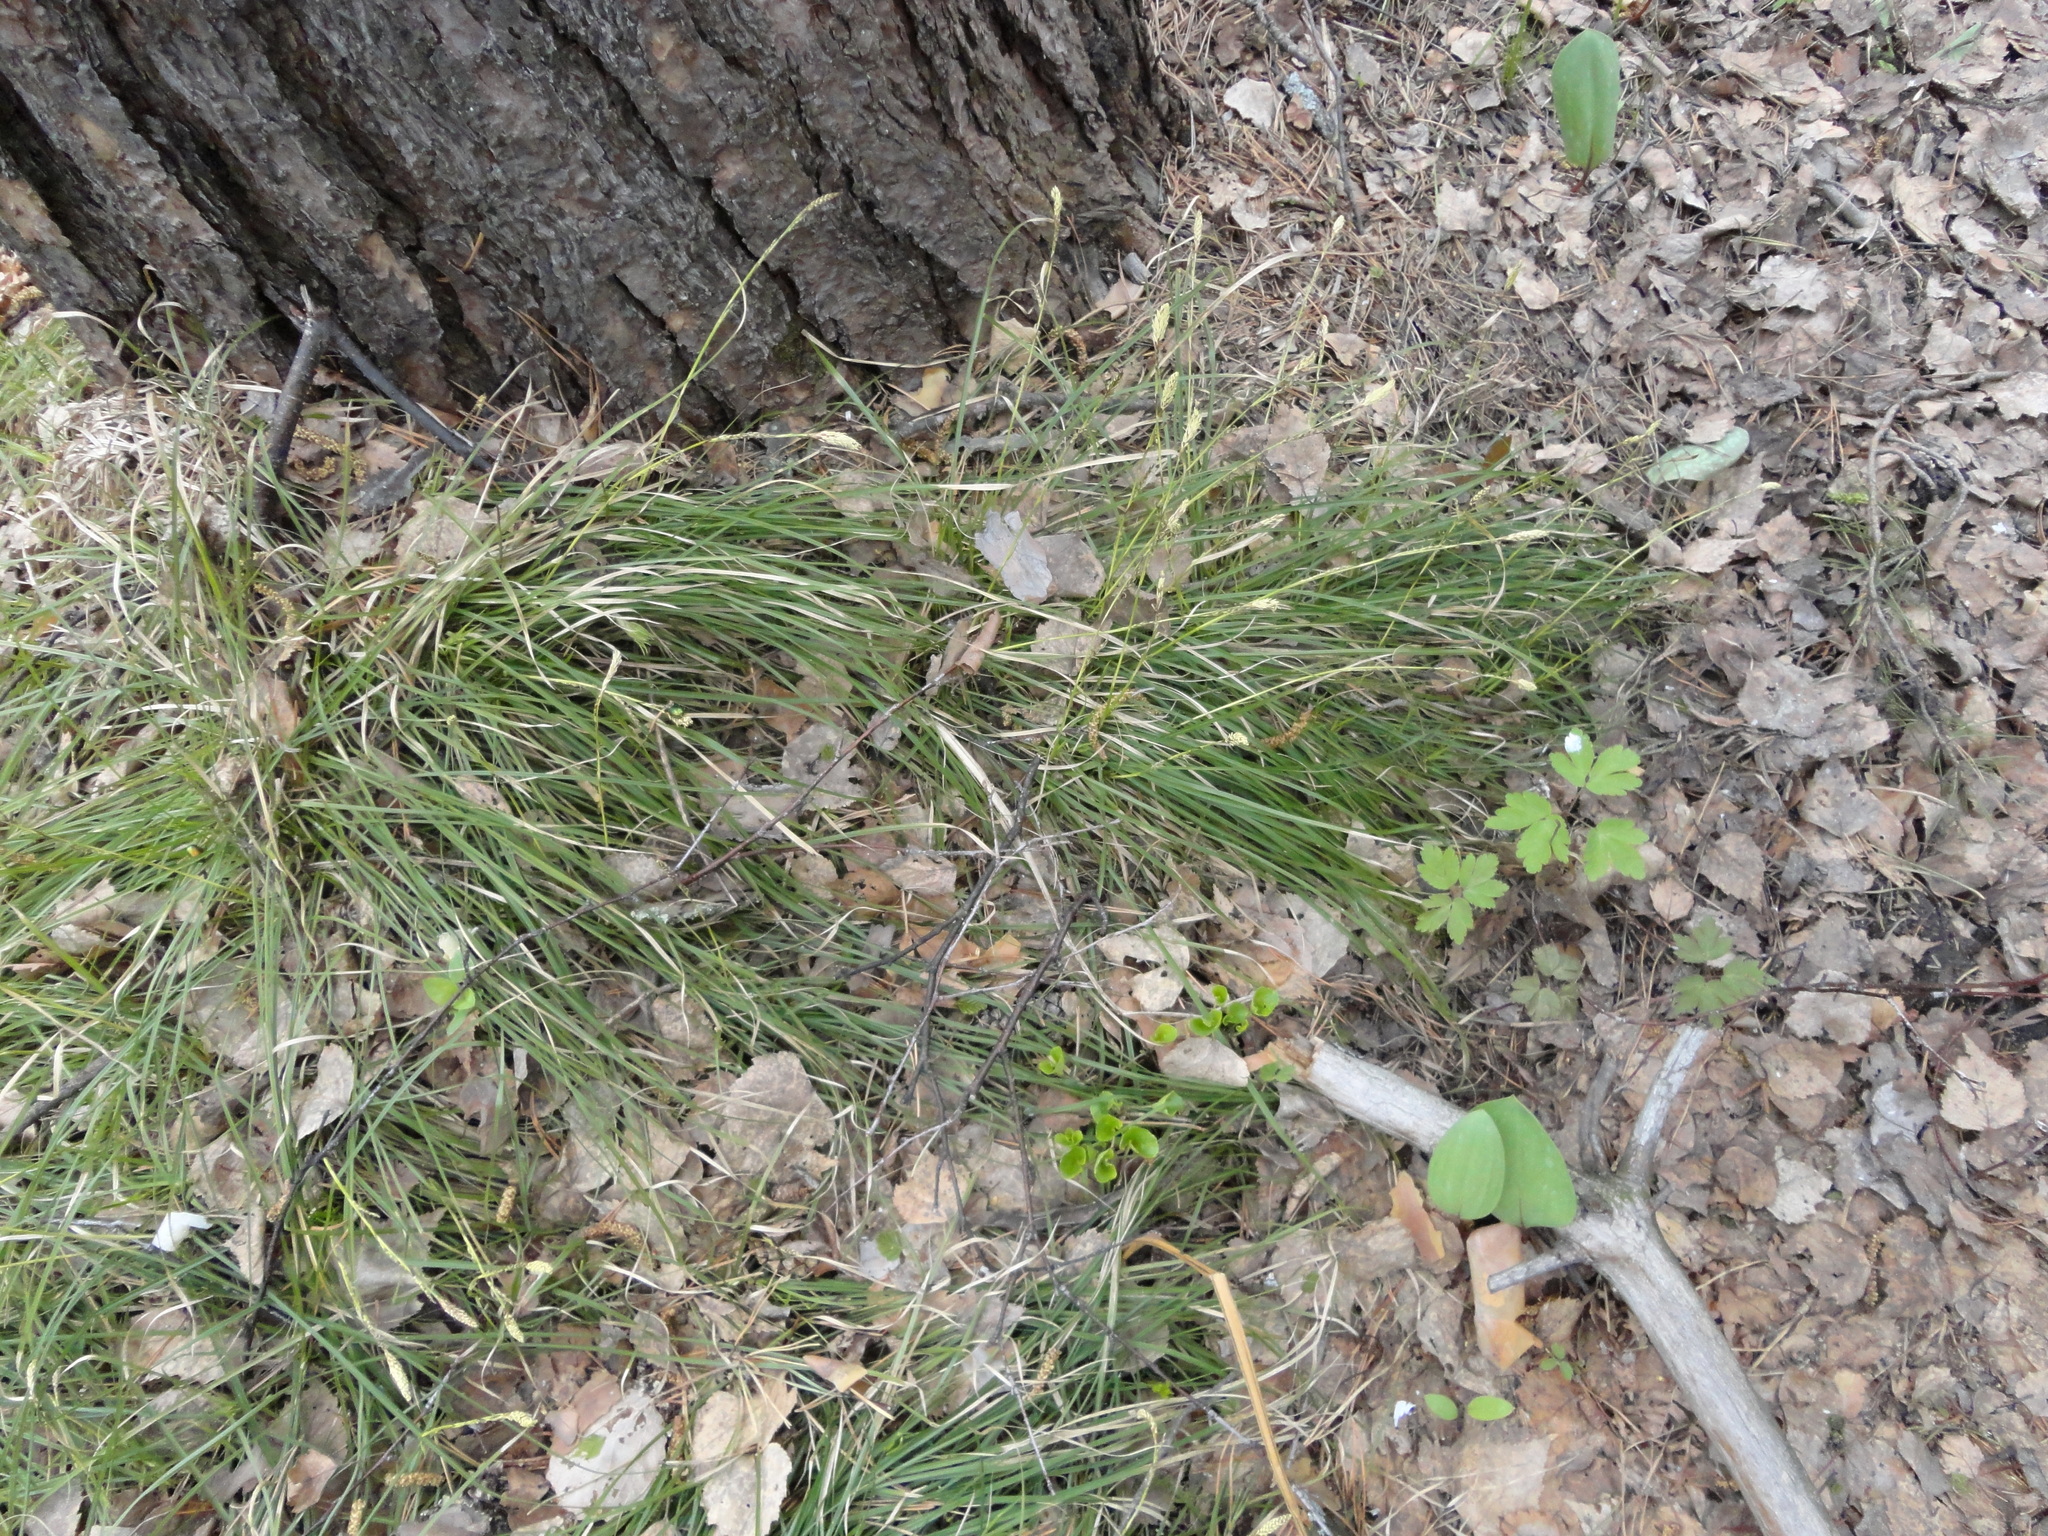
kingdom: Plantae
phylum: Tracheophyta
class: Liliopsida
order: Poales
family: Cyperaceae
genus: Carex
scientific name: Carex pediformis
